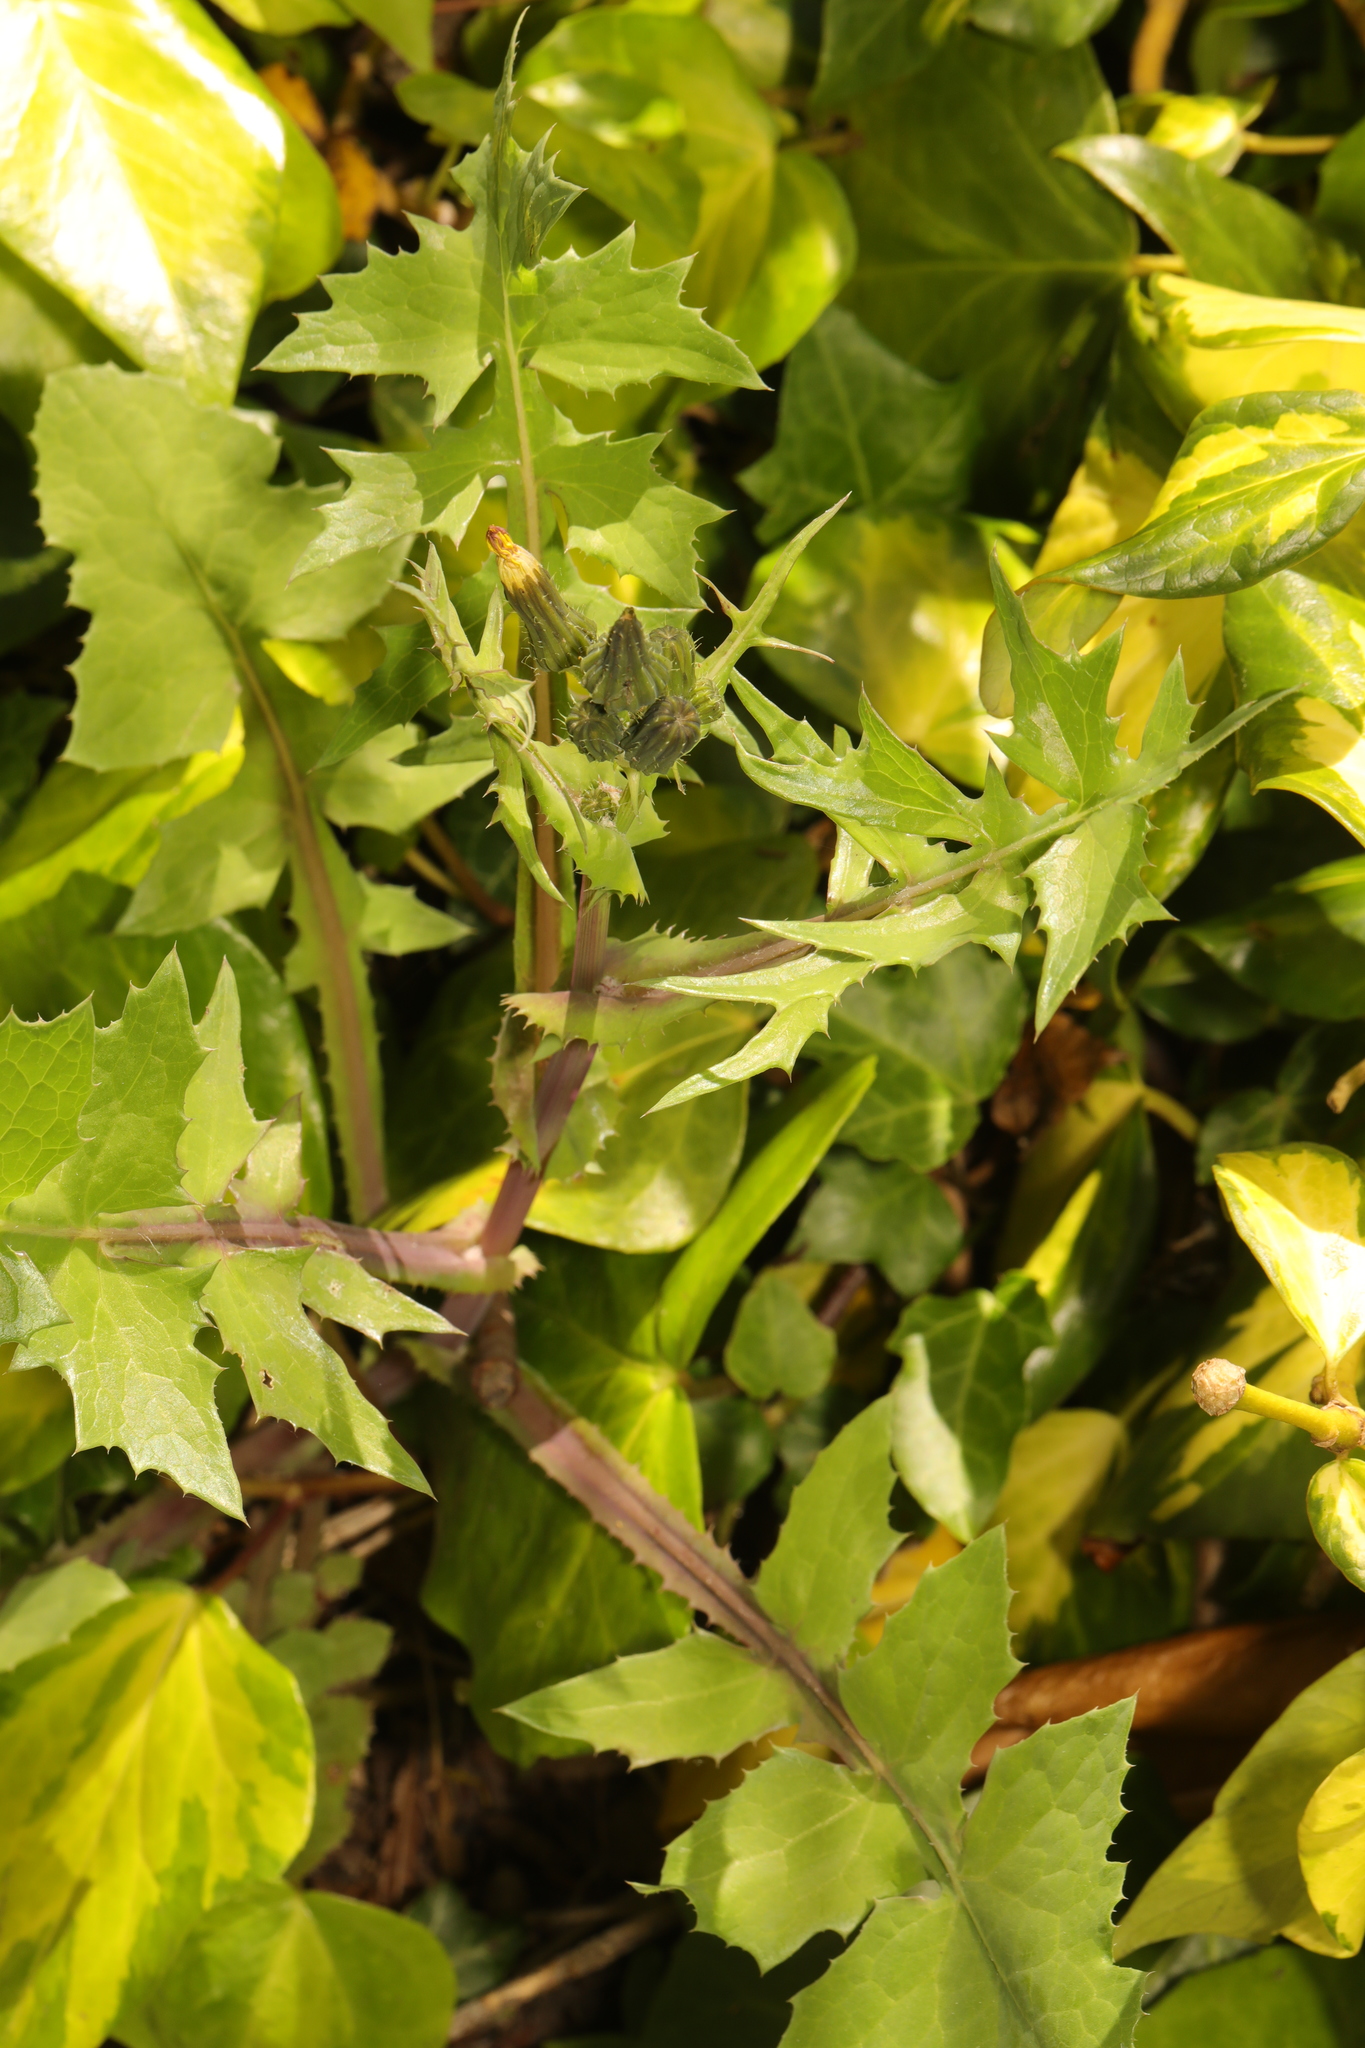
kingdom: Plantae
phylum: Tracheophyta
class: Magnoliopsida
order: Asterales
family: Asteraceae
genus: Sonchus
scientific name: Sonchus oleraceus
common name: Common sowthistle
